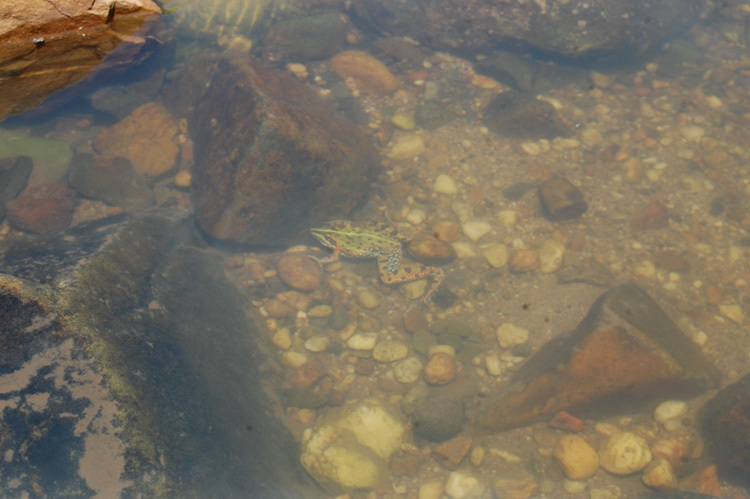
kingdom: Animalia
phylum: Chordata
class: Amphibia
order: Anura
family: Pyxicephalidae
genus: Amietia
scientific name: Amietia delalandii
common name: Delalande's river frog
